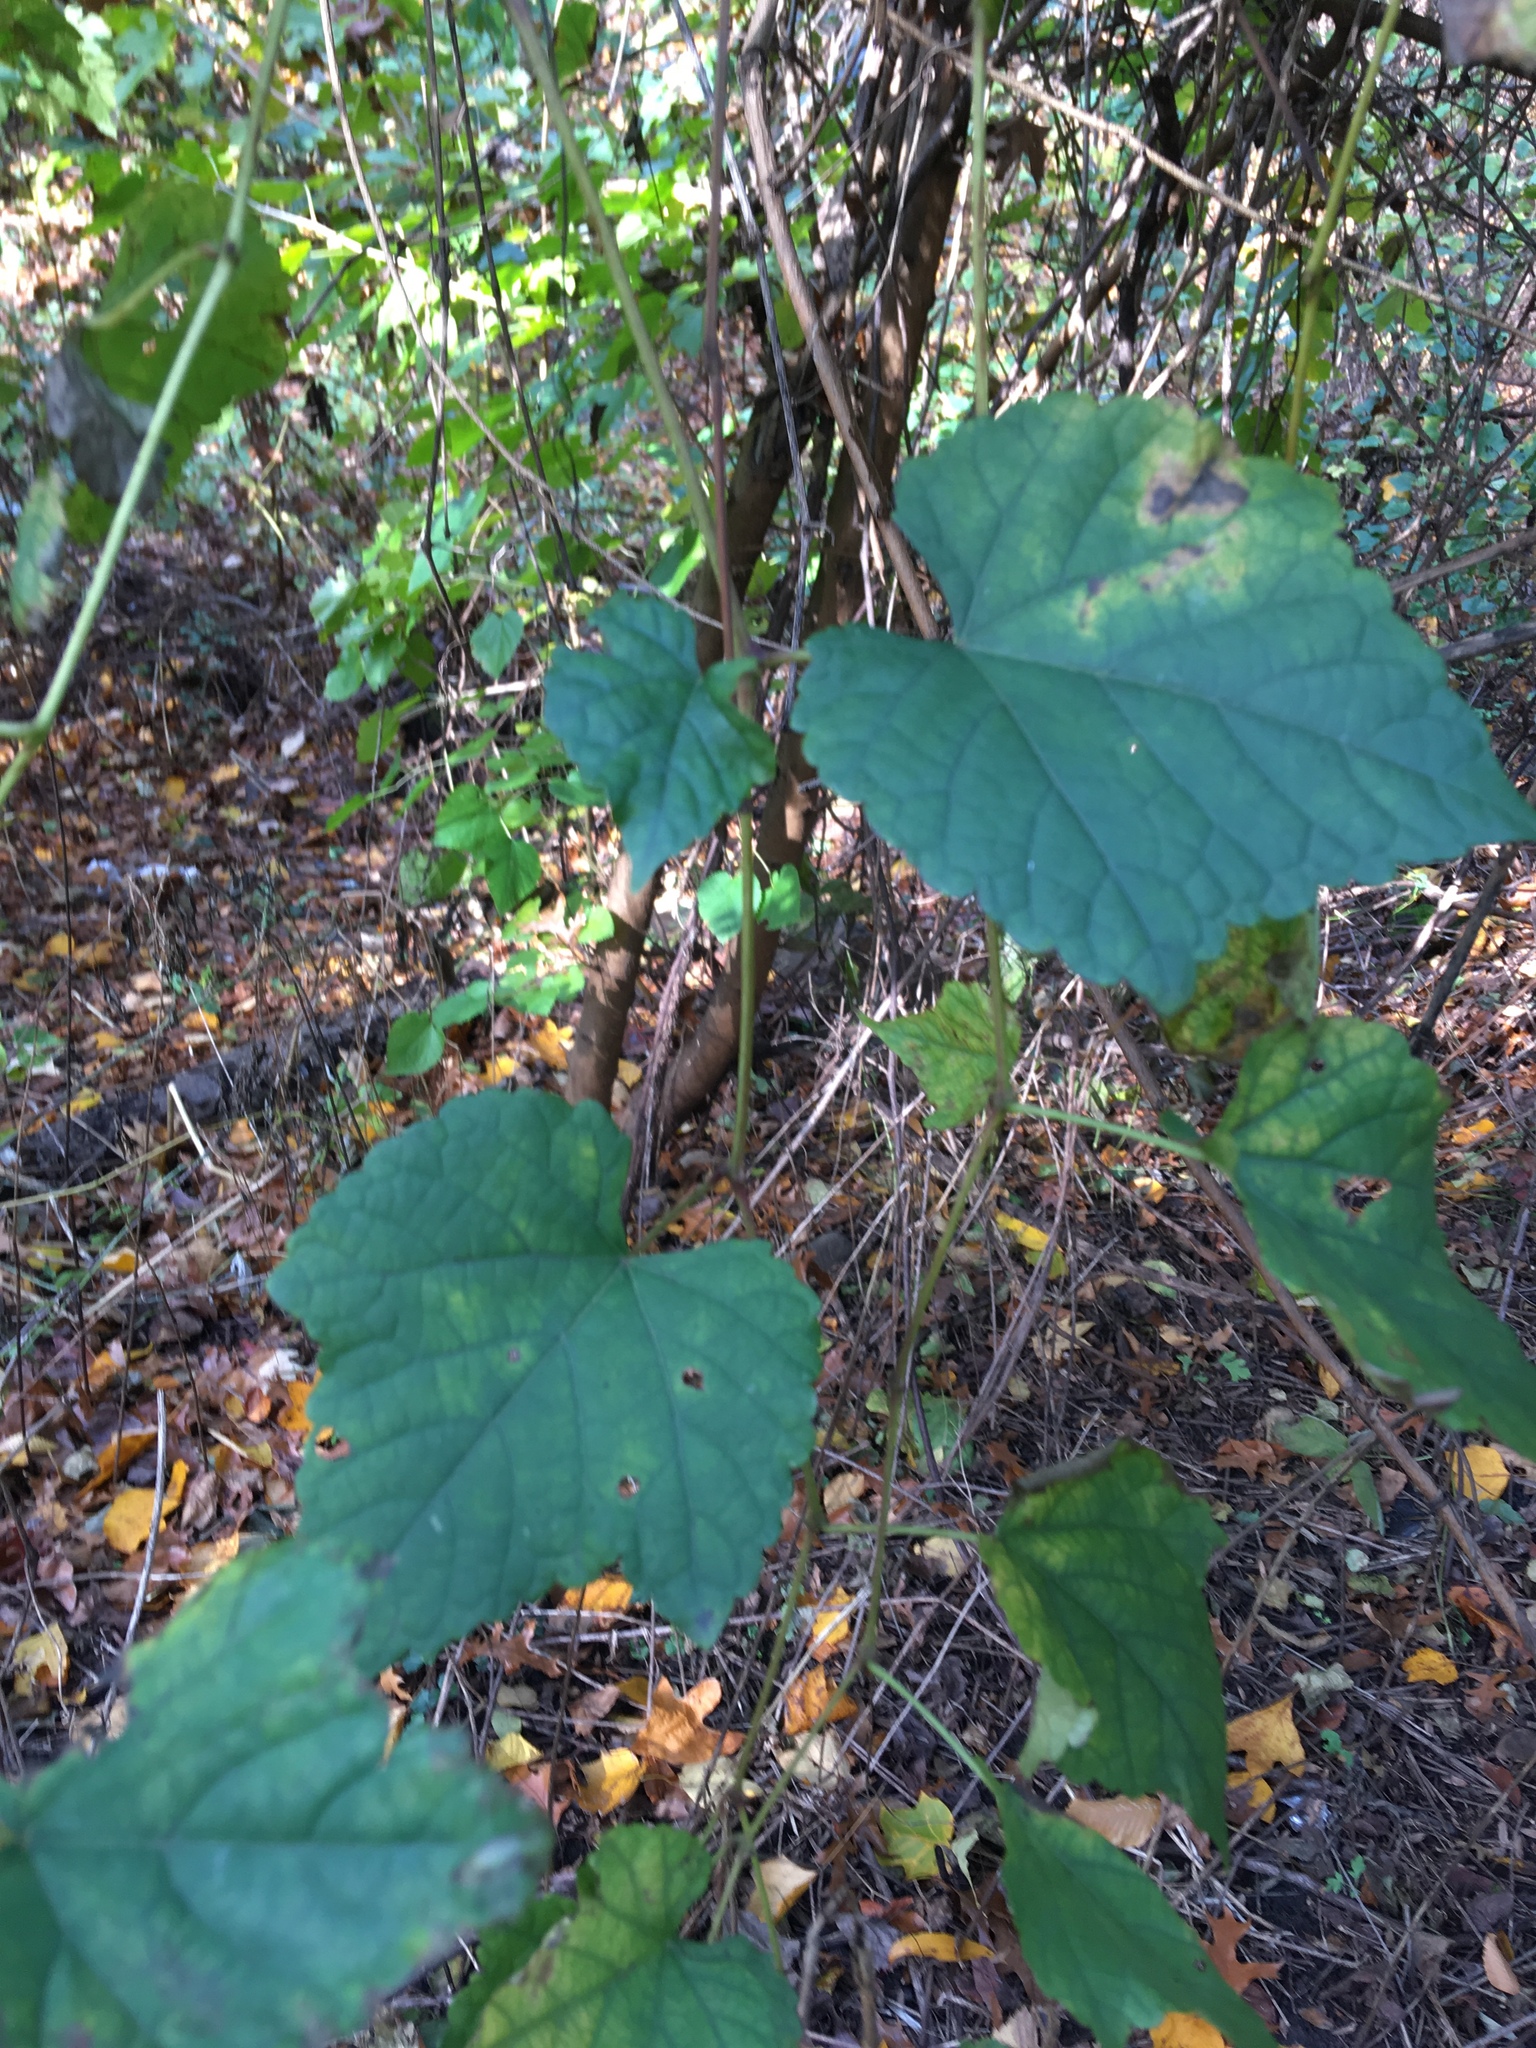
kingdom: Plantae
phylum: Tracheophyta
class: Magnoliopsida
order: Vitales
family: Vitaceae
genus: Ampelopsis
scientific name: Ampelopsis glandulosa
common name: Amur peppervine
